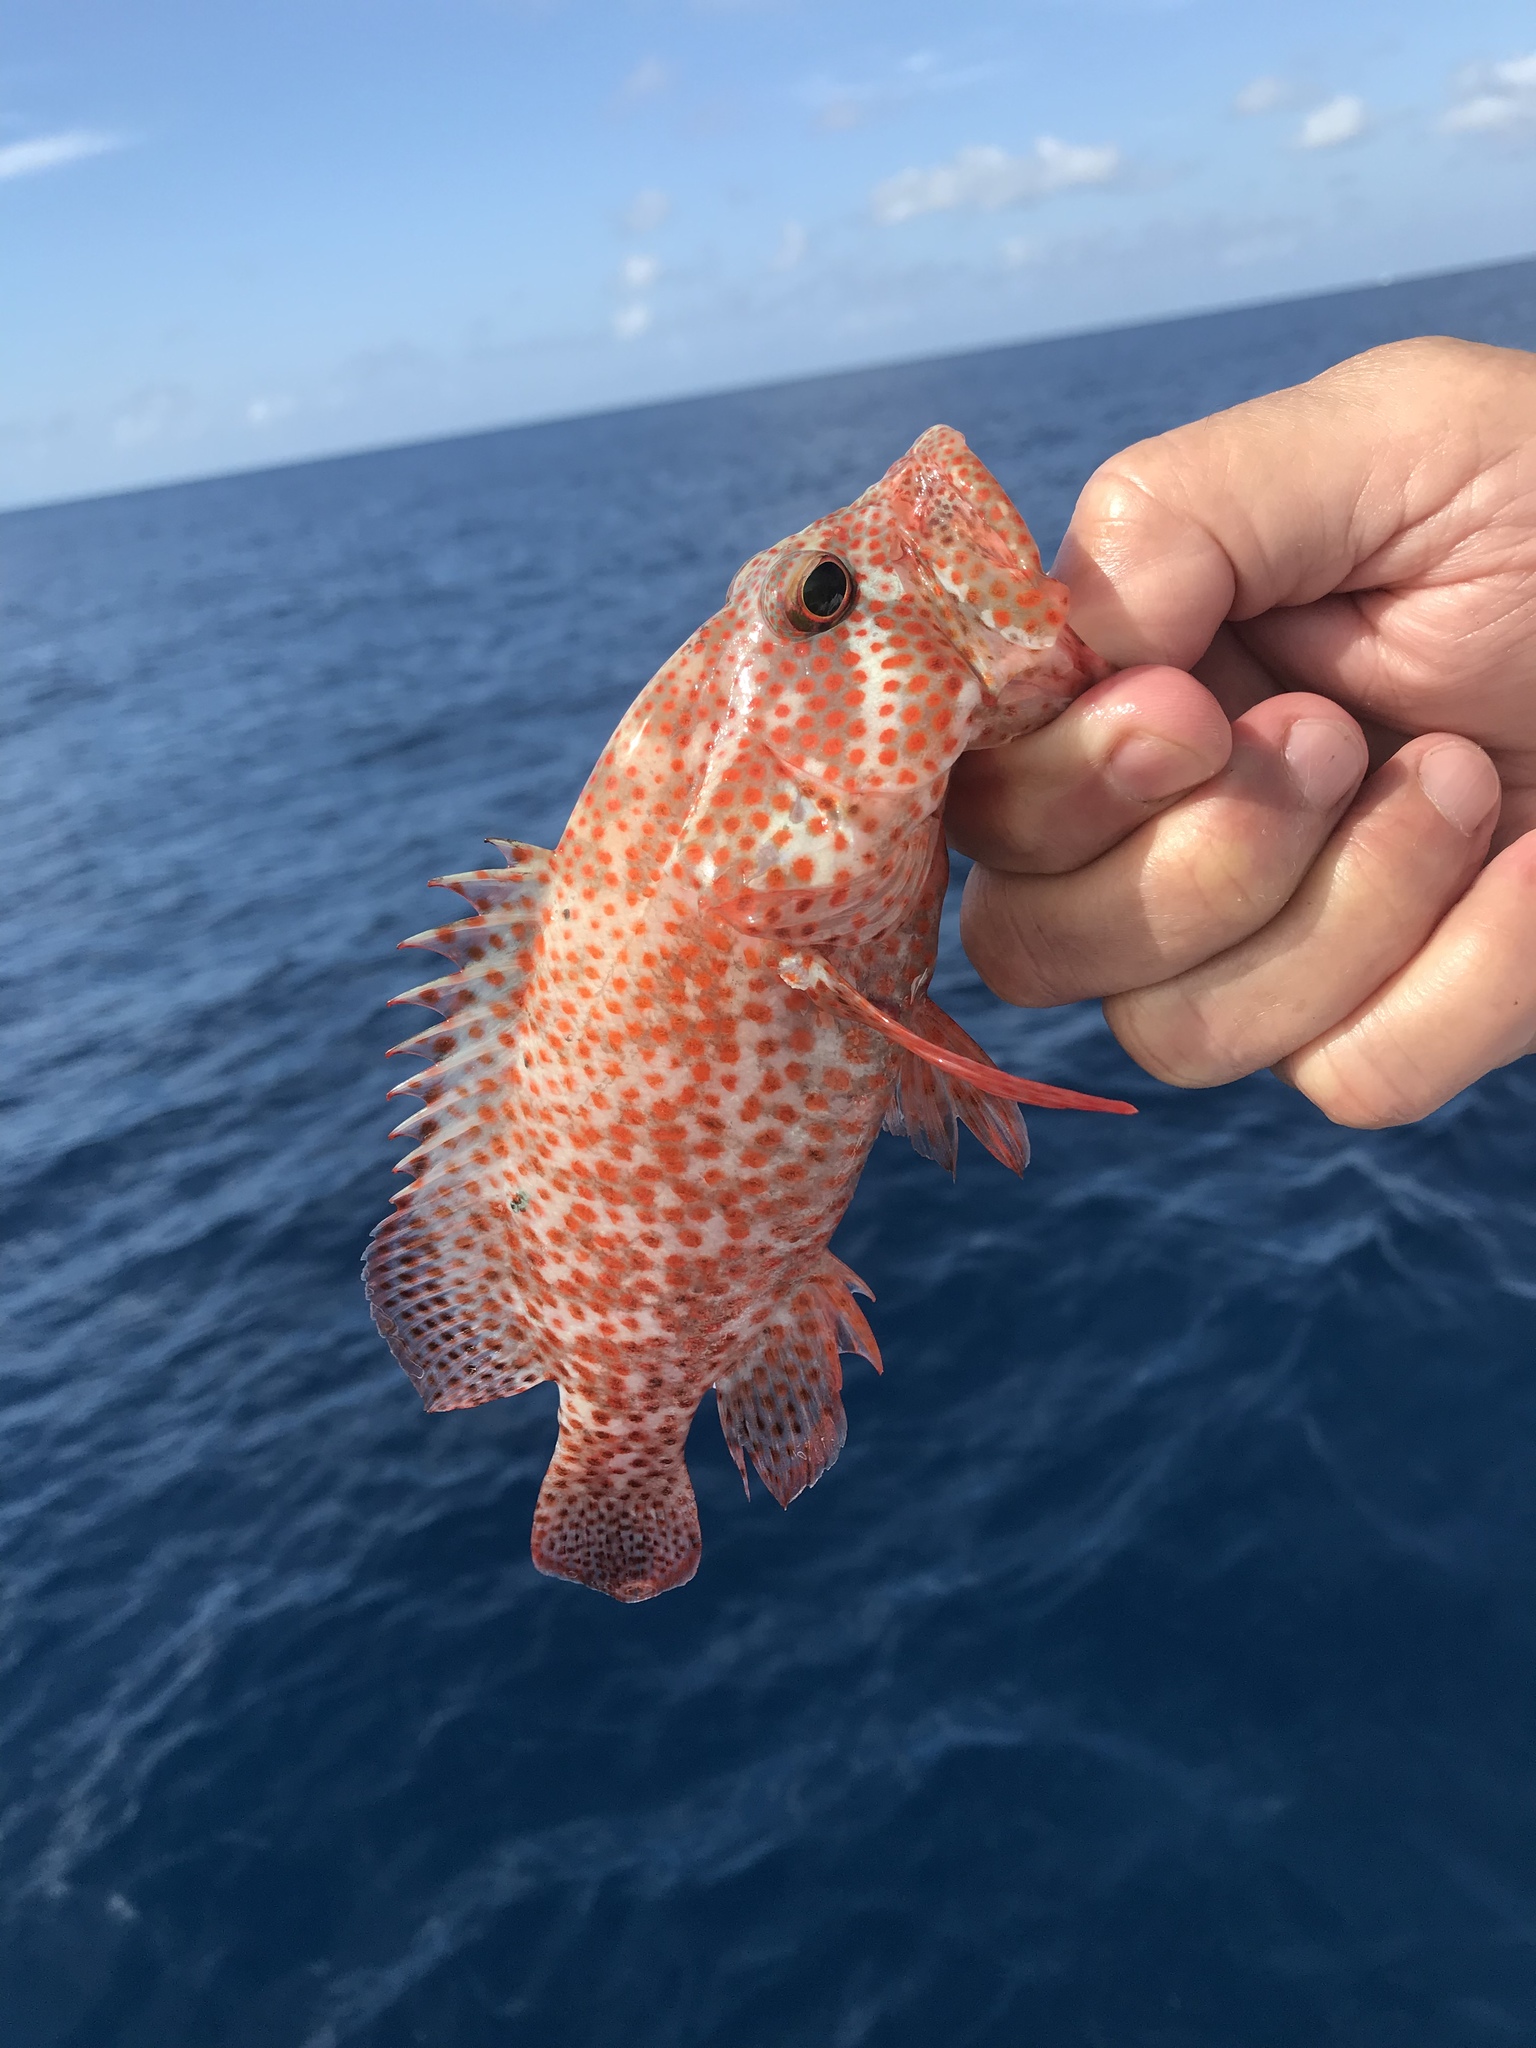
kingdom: Animalia
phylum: Chordata
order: Perciformes
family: Serranidae
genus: Cephalopholis
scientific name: Cephalopholis cruentata
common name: Graysby
